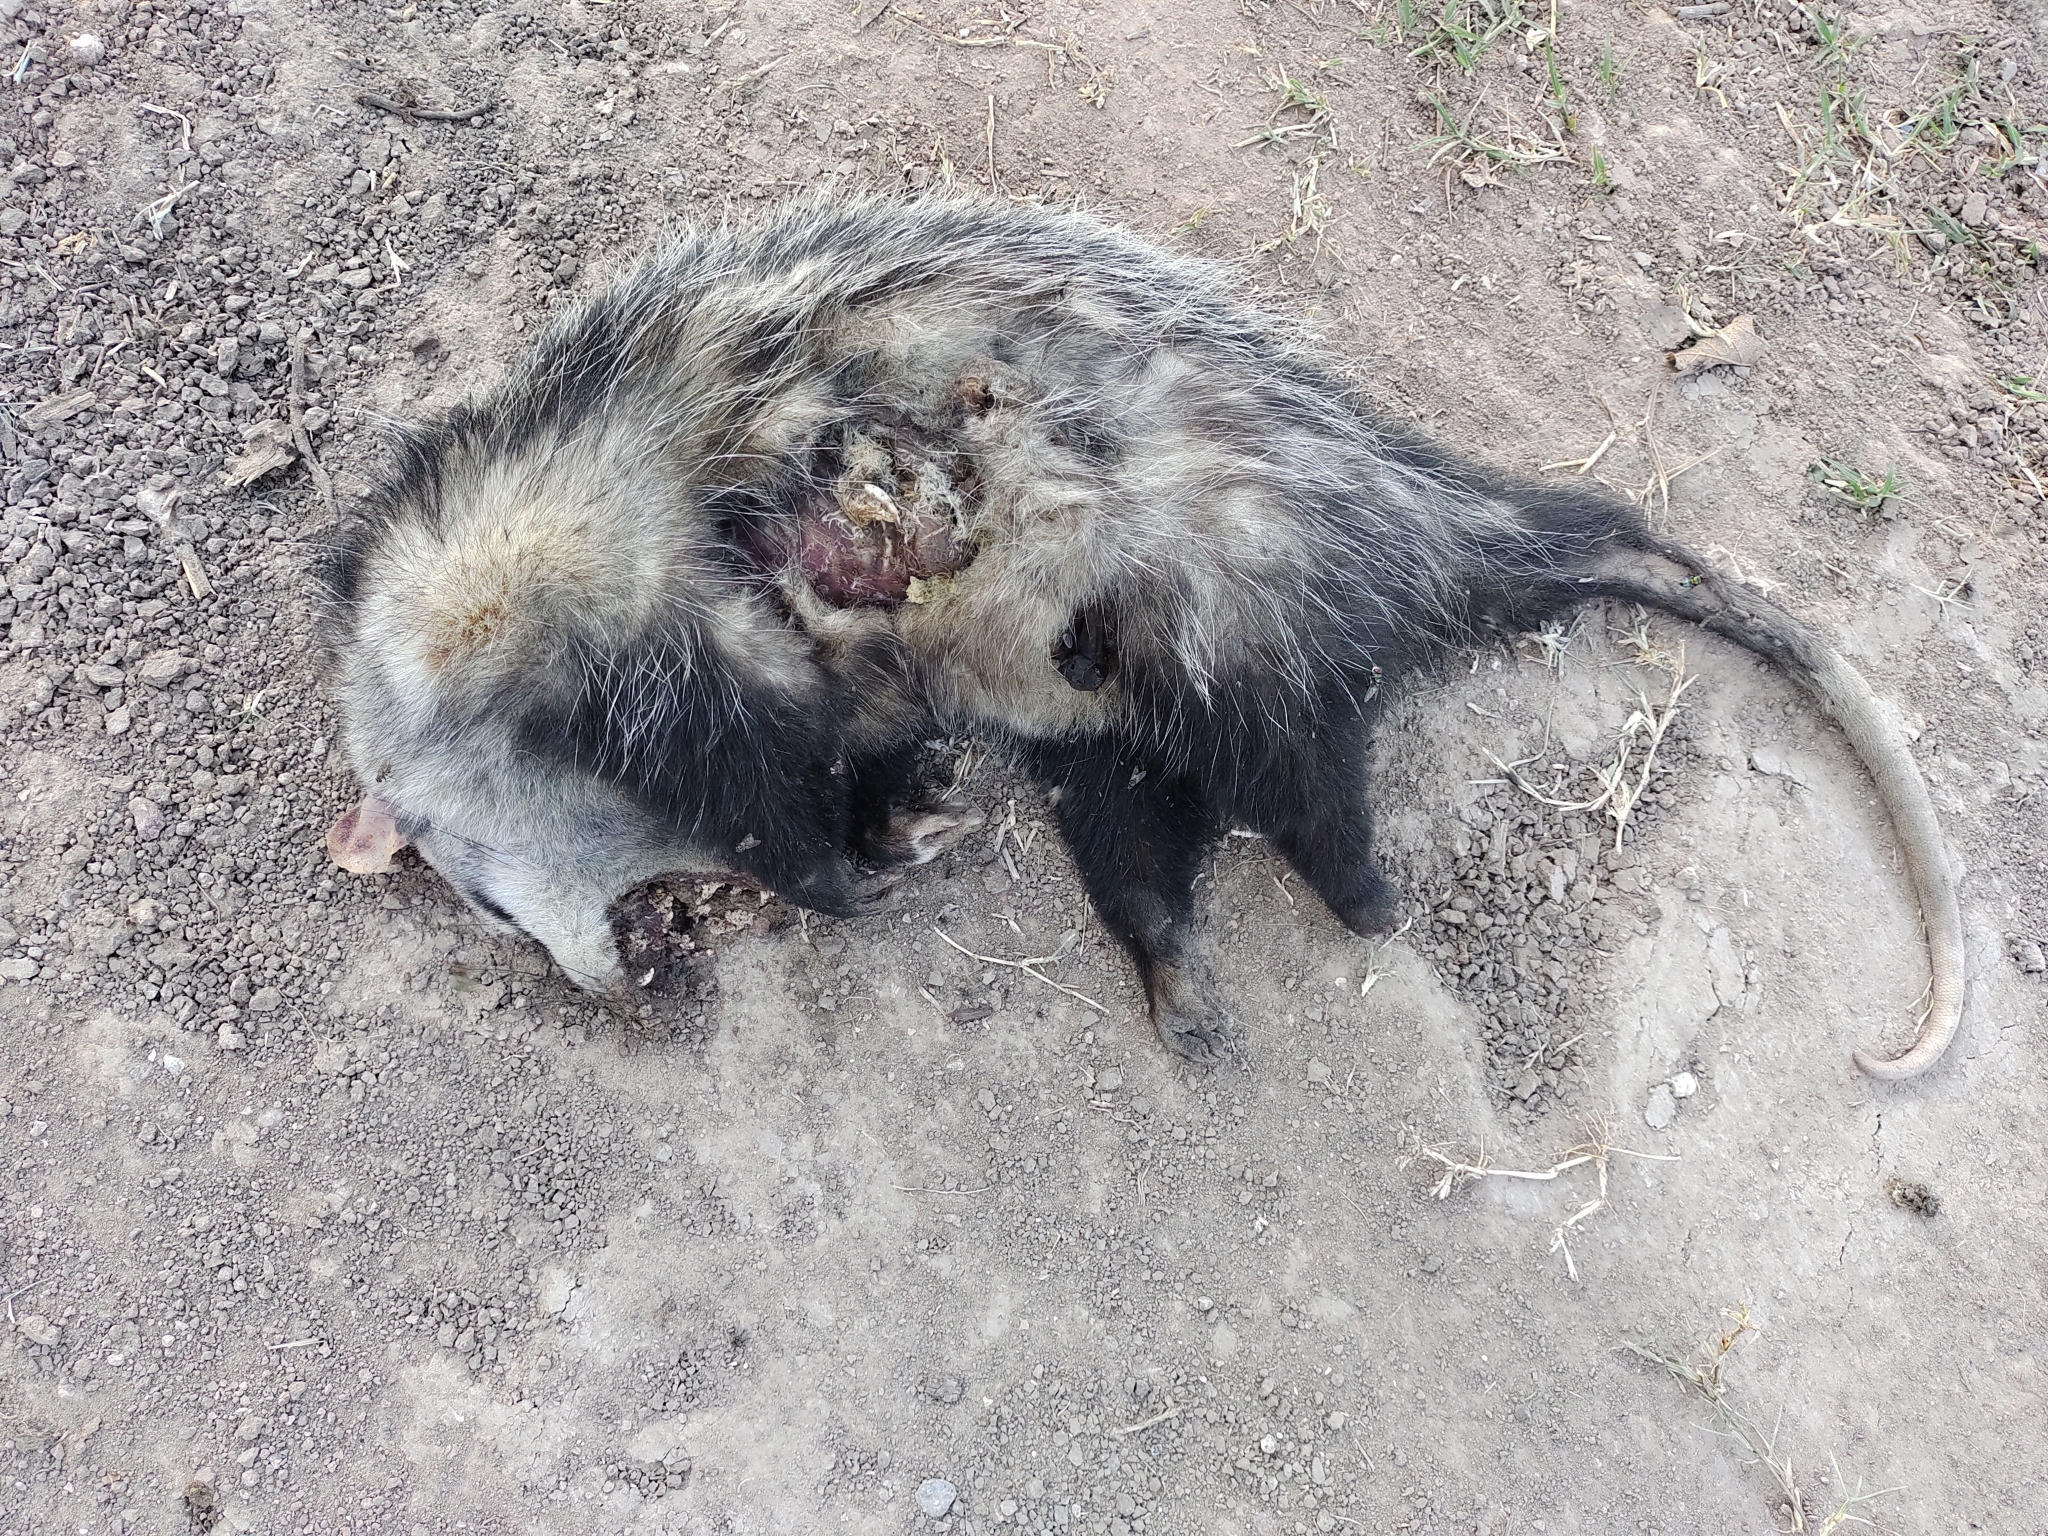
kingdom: Animalia
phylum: Chordata
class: Mammalia
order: Didelphimorphia
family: Didelphidae
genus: Didelphis
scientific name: Didelphis albiventris
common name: White-eared opossum
